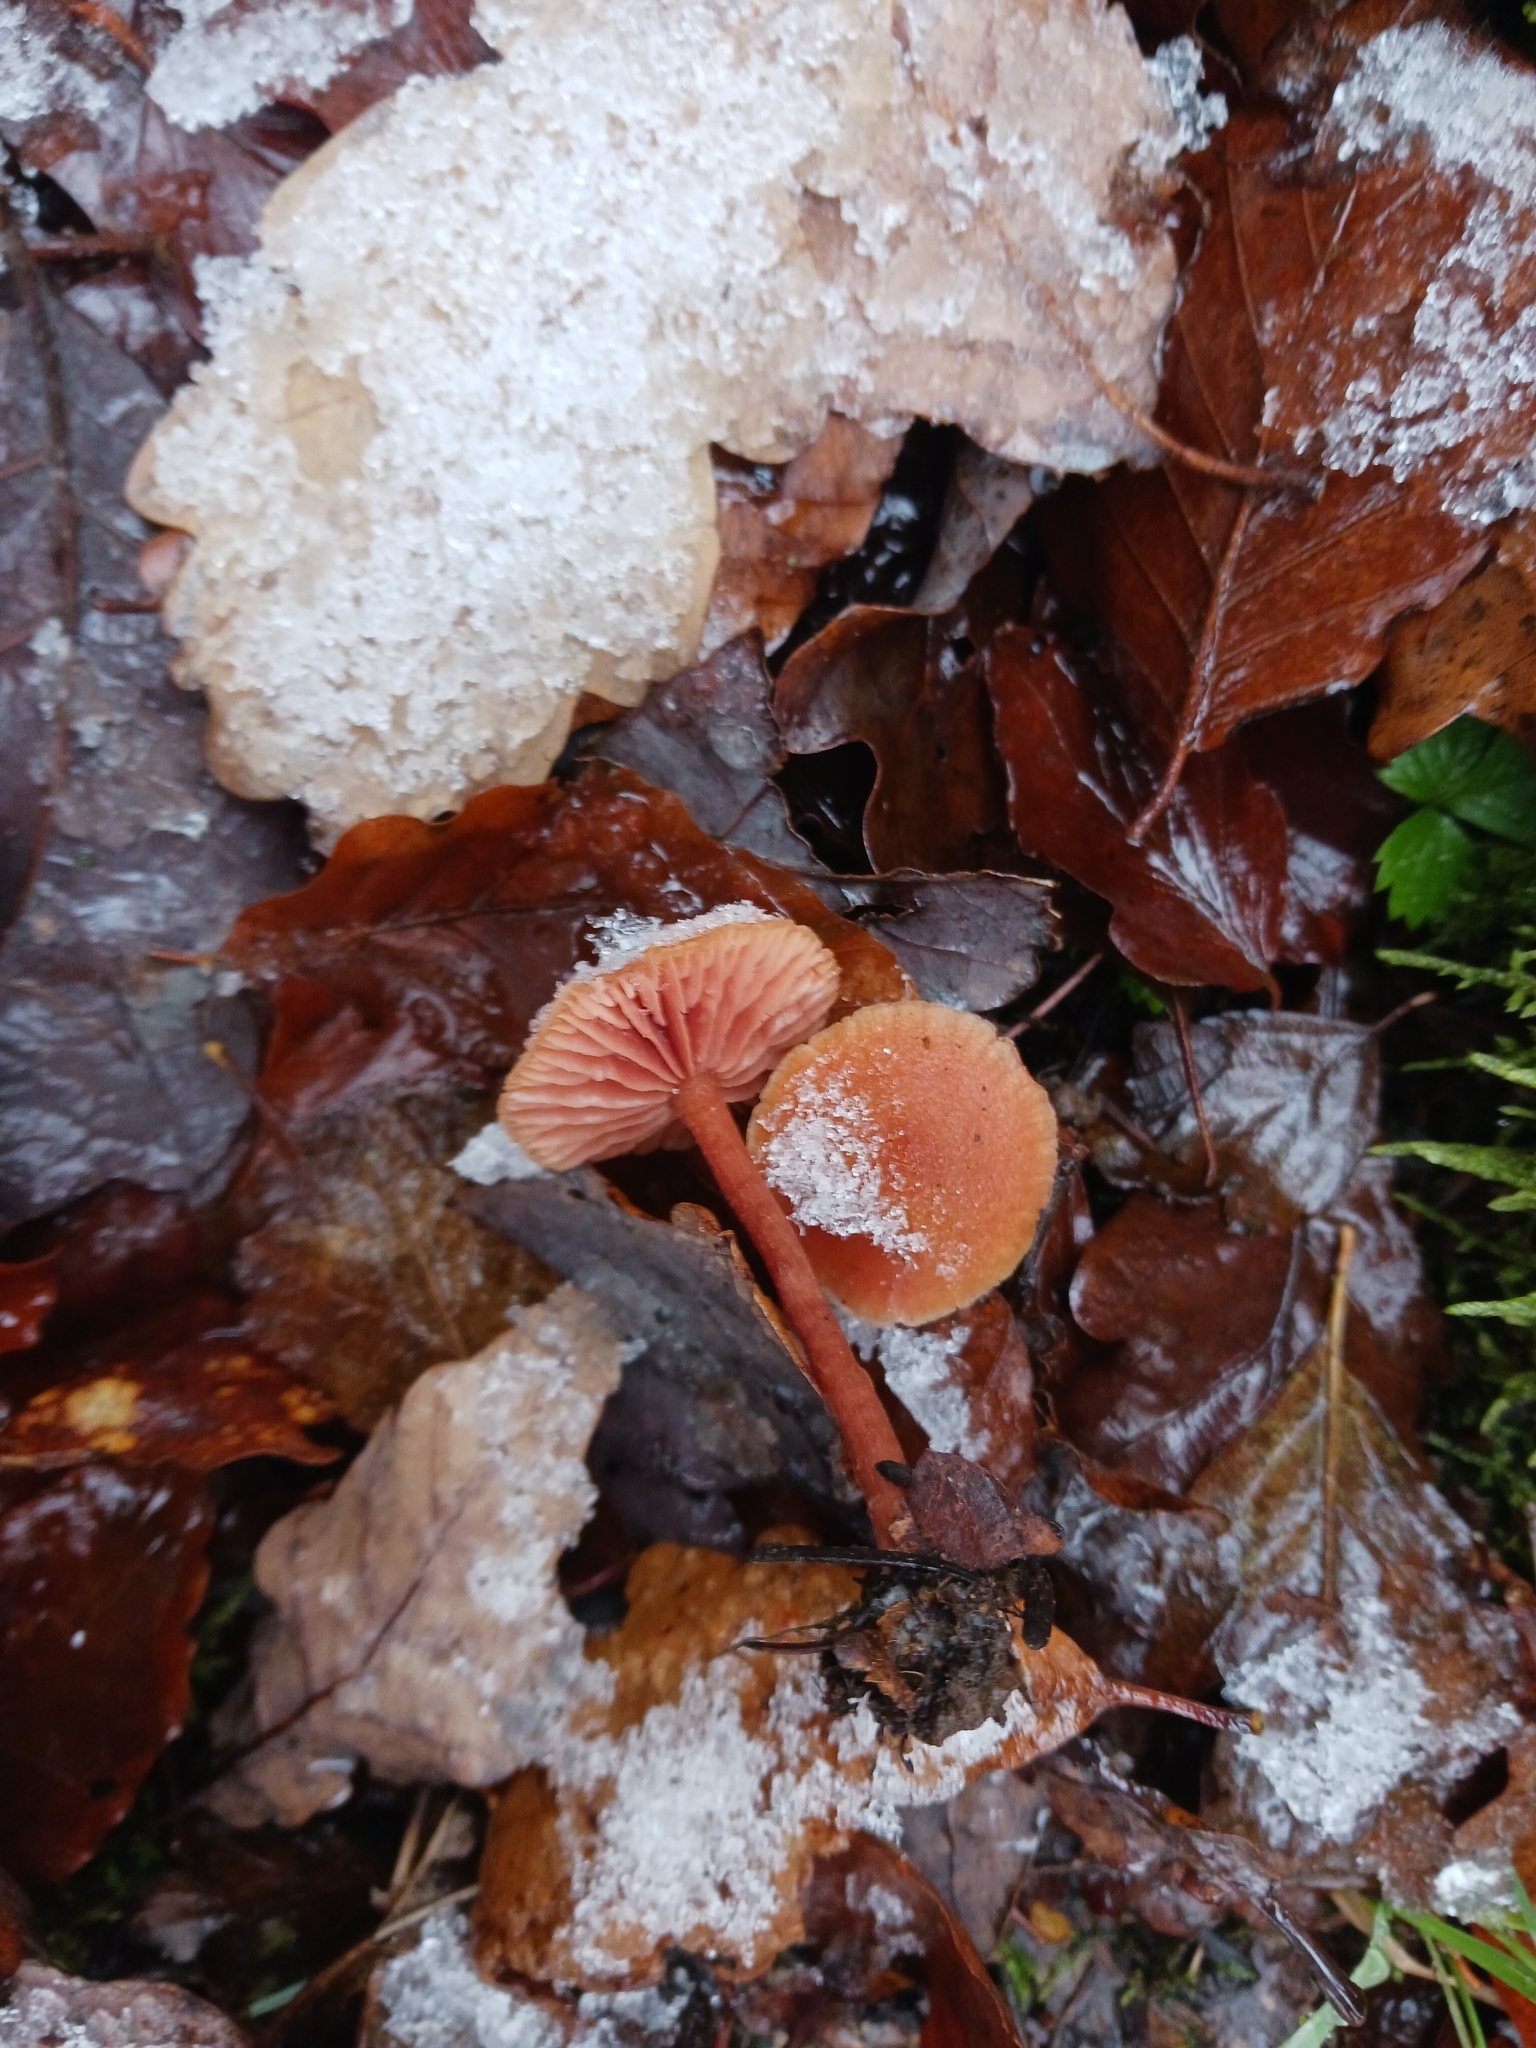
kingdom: Fungi
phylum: Basidiomycota
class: Agaricomycetes
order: Agaricales
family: Hydnangiaceae
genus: Laccaria
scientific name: Laccaria macrocystidiata
